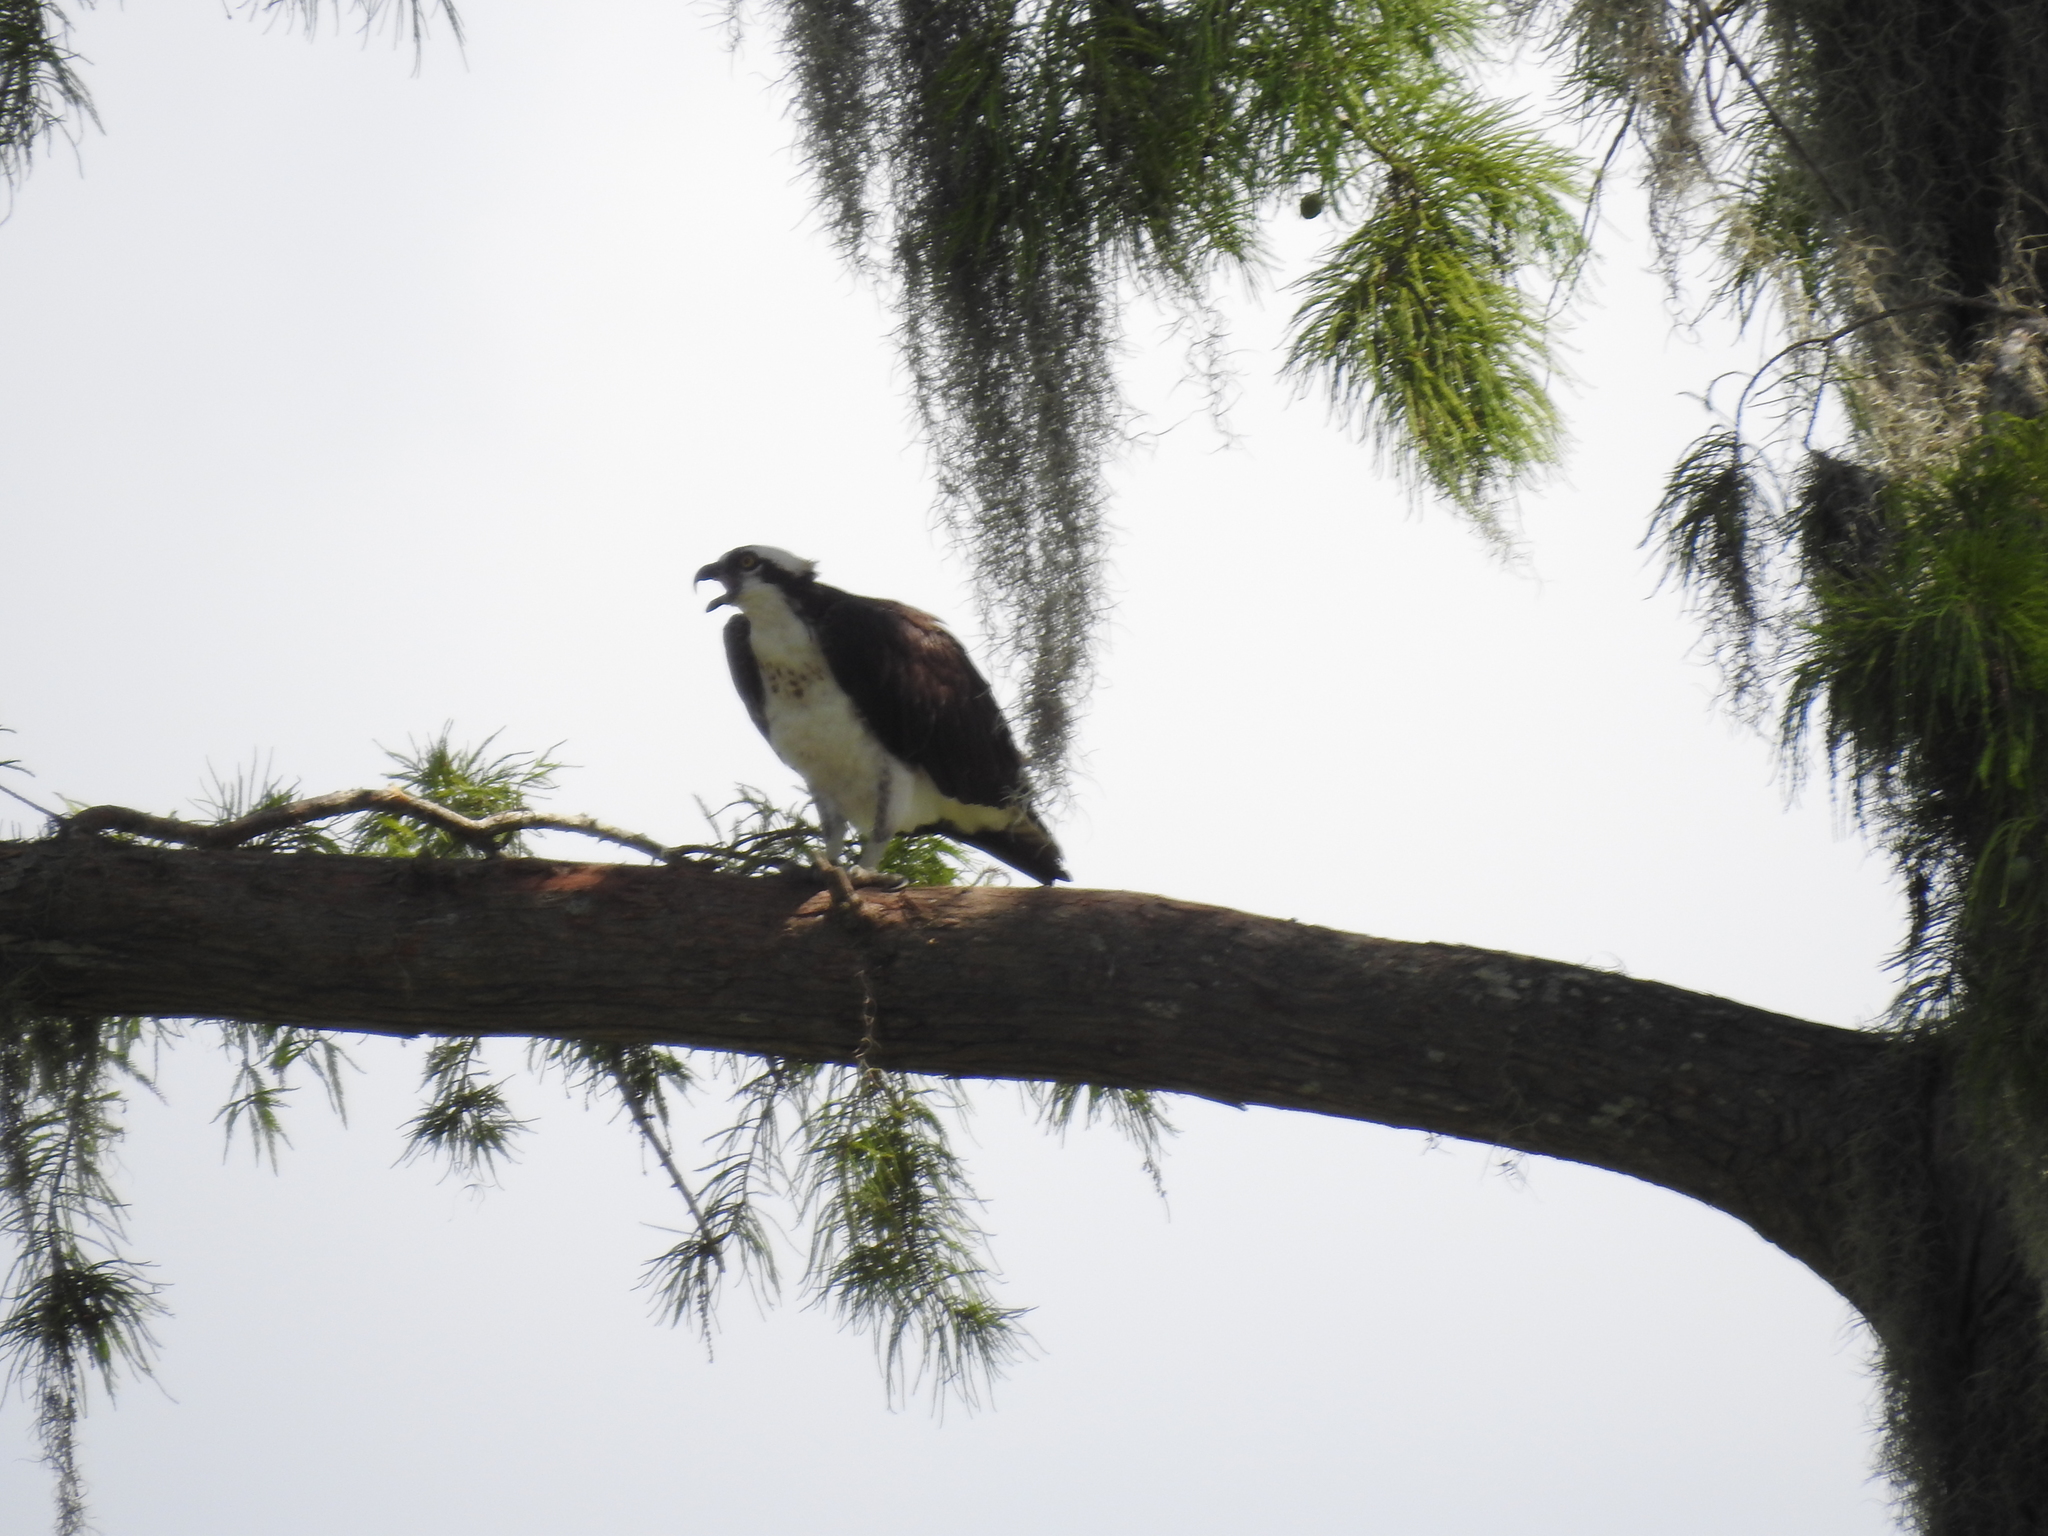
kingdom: Animalia
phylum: Chordata
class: Aves
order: Accipitriformes
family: Pandionidae
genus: Pandion
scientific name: Pandion haliaetus
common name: Osprey
